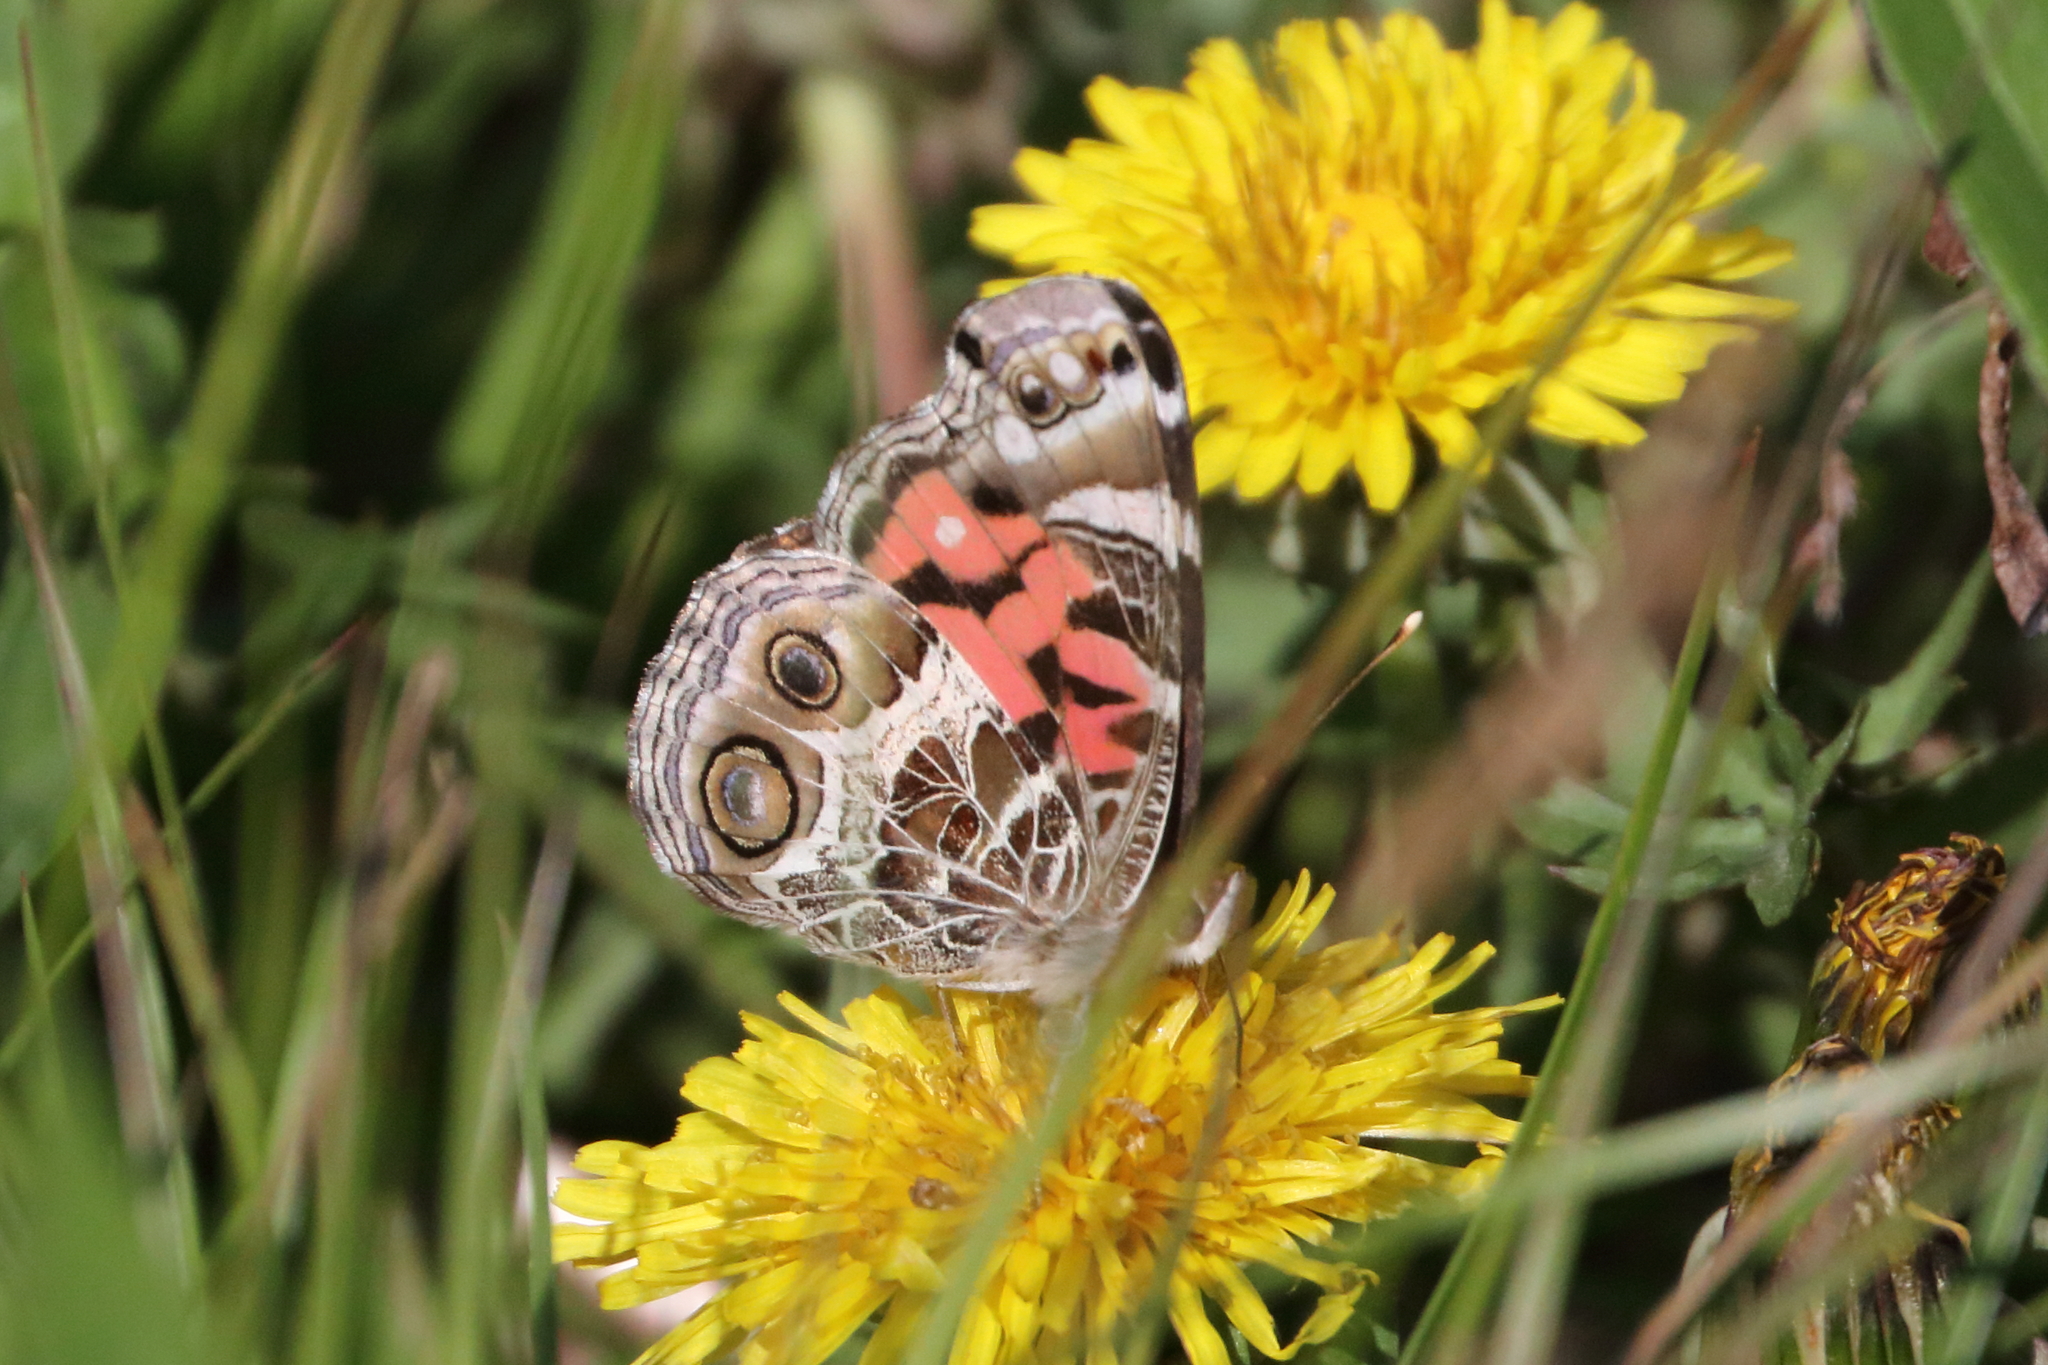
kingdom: Animalia
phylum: Arthropoda
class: Insecta
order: Lepidoptera
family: Nymphalidae
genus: Vanessa
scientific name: Vanessa virginiensis
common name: American lady
